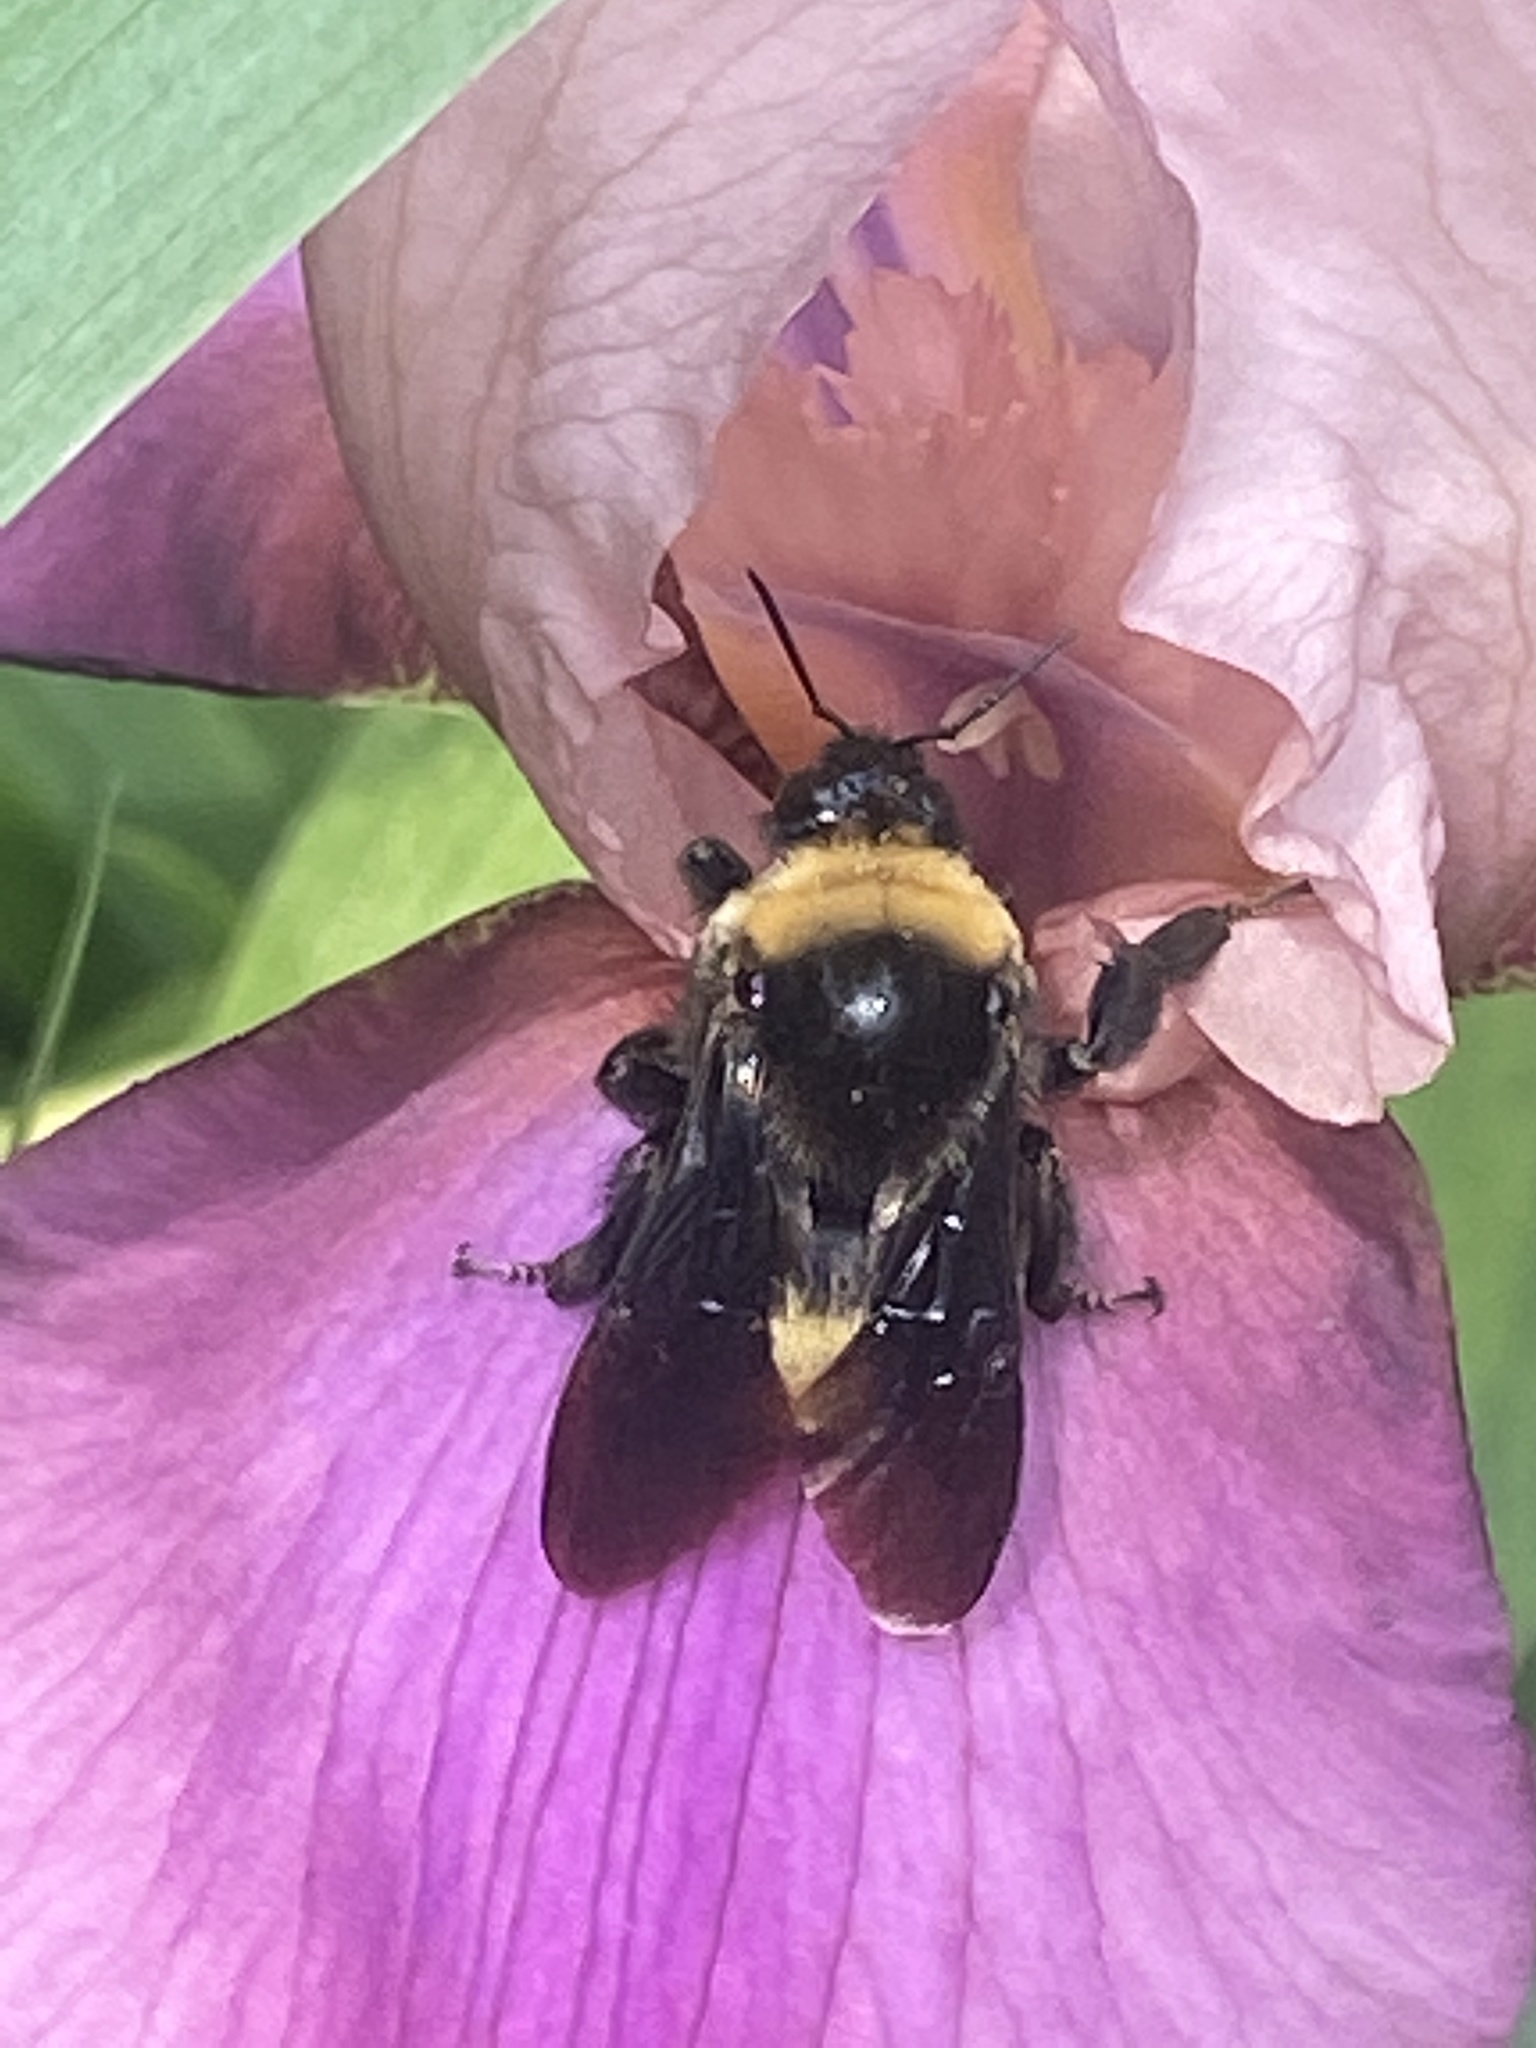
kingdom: Animalia
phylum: Arthropoda
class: Insecta
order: Hymenoptera
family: Apidae
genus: Bombus
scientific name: Bombus auricomus
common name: Black and gold bumble bee
